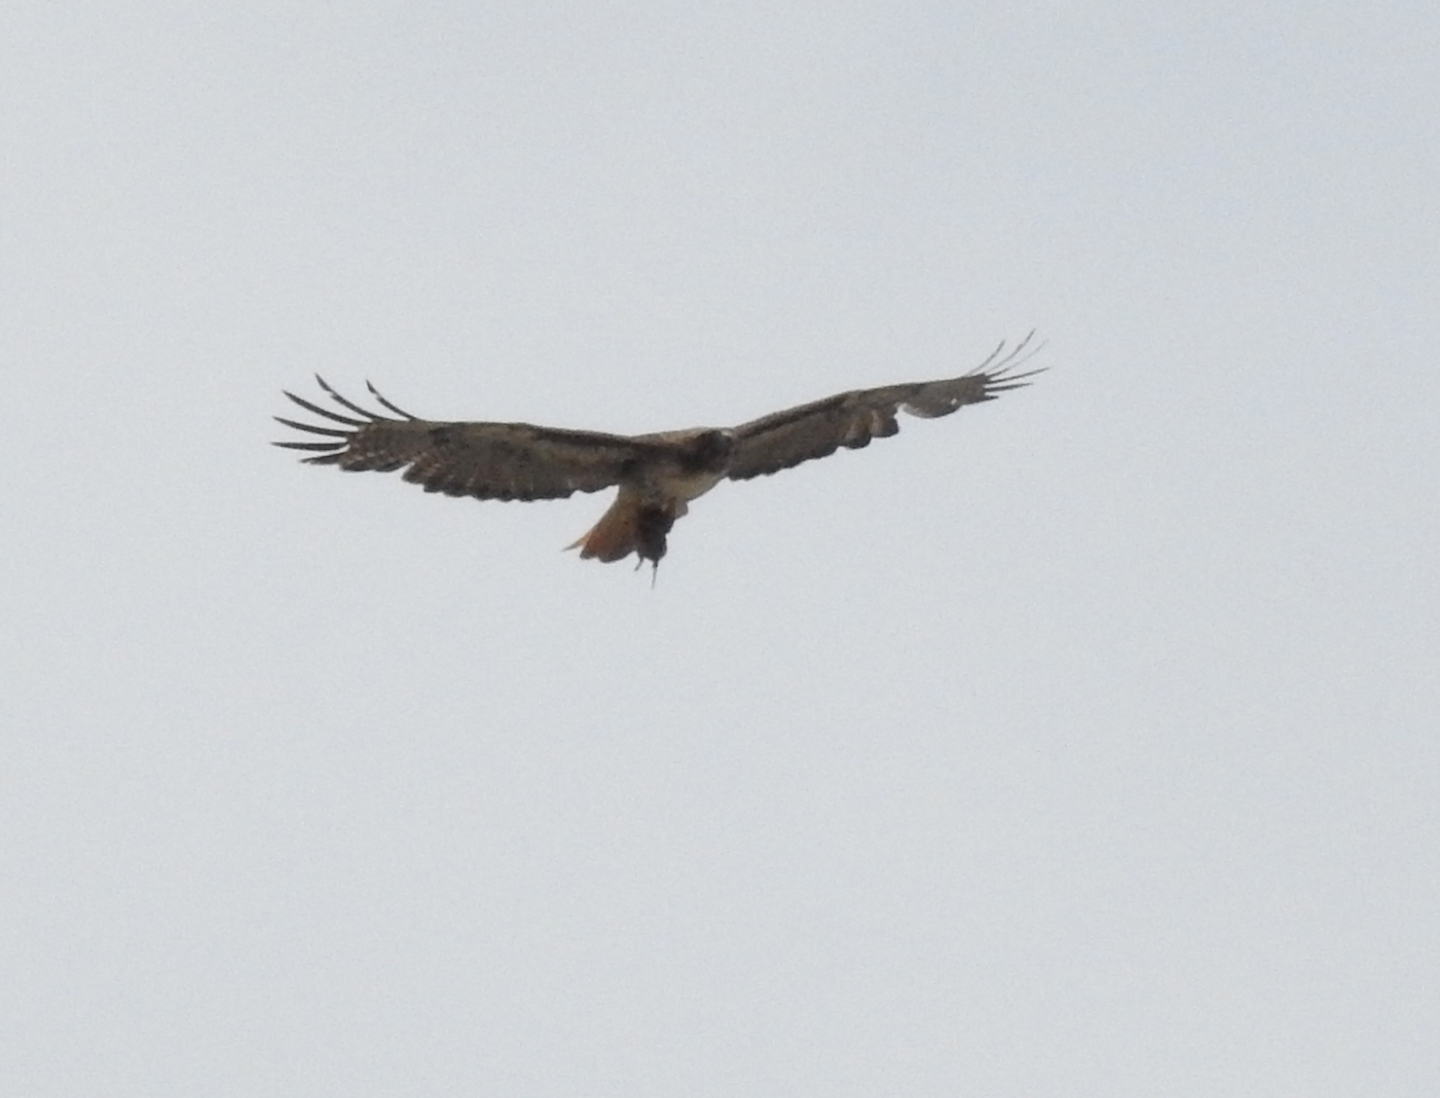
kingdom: Animalia
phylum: Chordata
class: Aves
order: Accipitriformes
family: Accipitridae
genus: Buteo
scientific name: Buteo jamaicensis
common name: Red-tailed hawk
